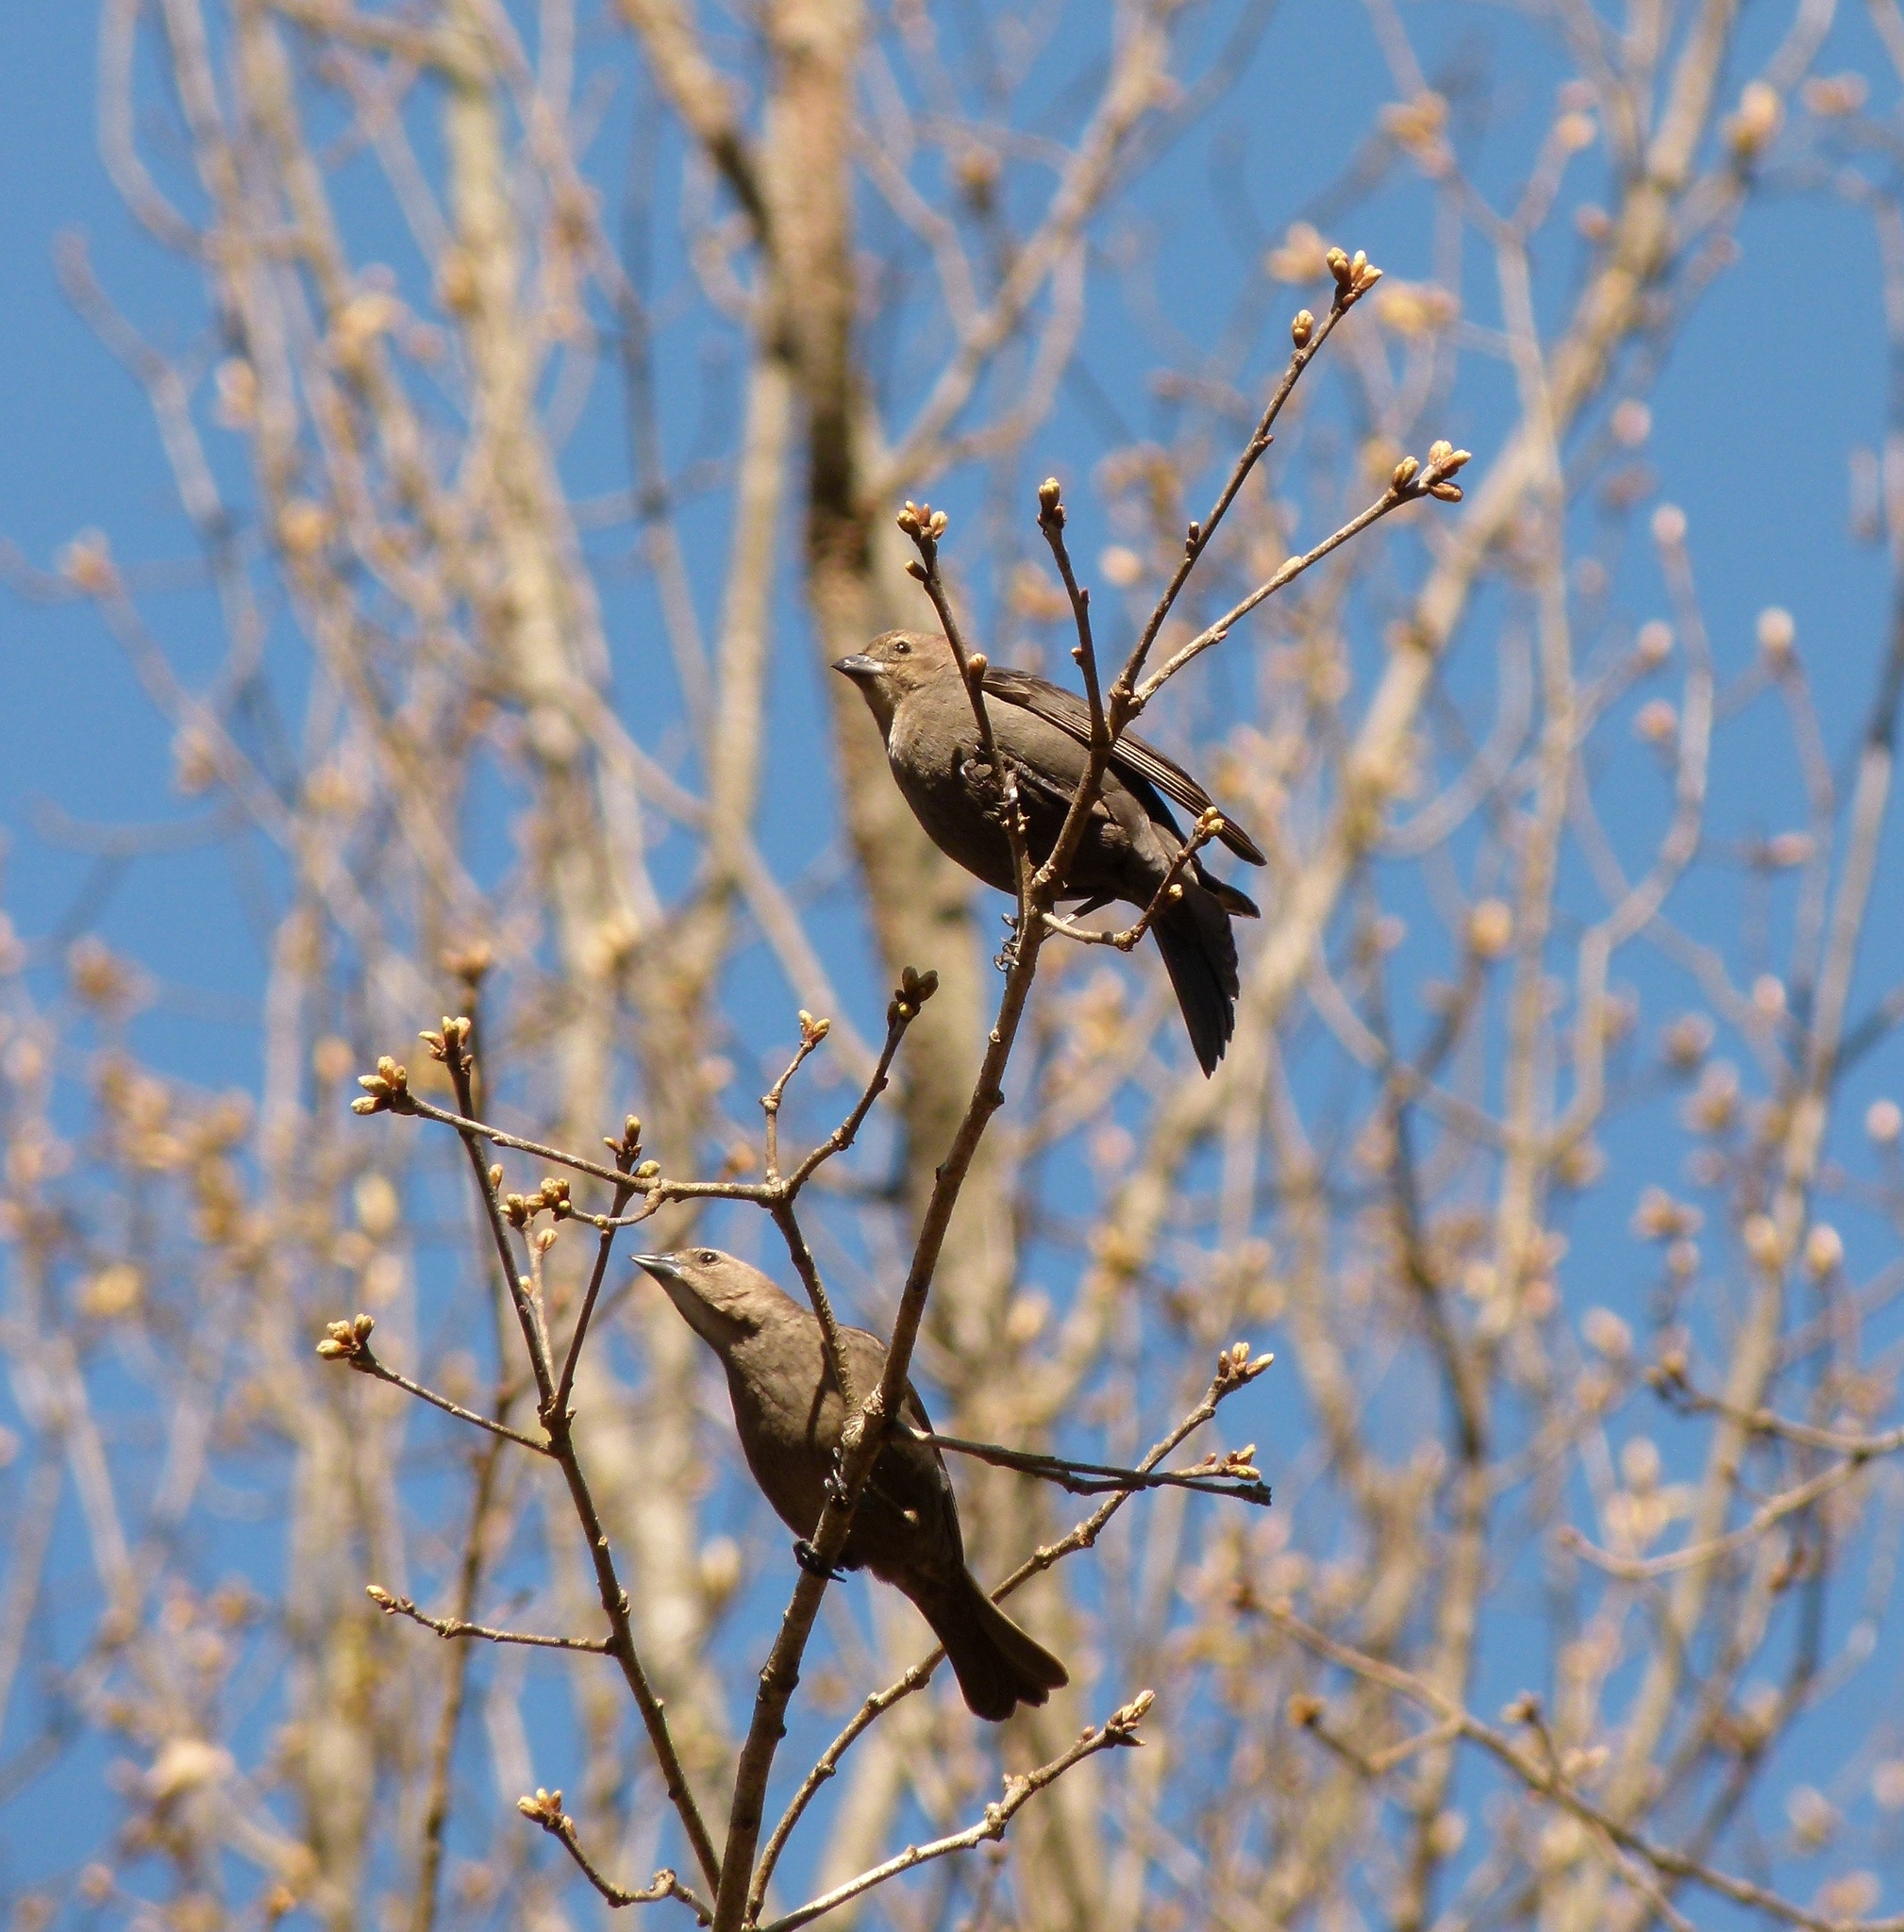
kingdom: Animalia
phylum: Chordata
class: Aves
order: Passeriformes
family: Icteridae
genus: Molothrus
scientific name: Molothrus ater
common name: Brown-headed cowbird
